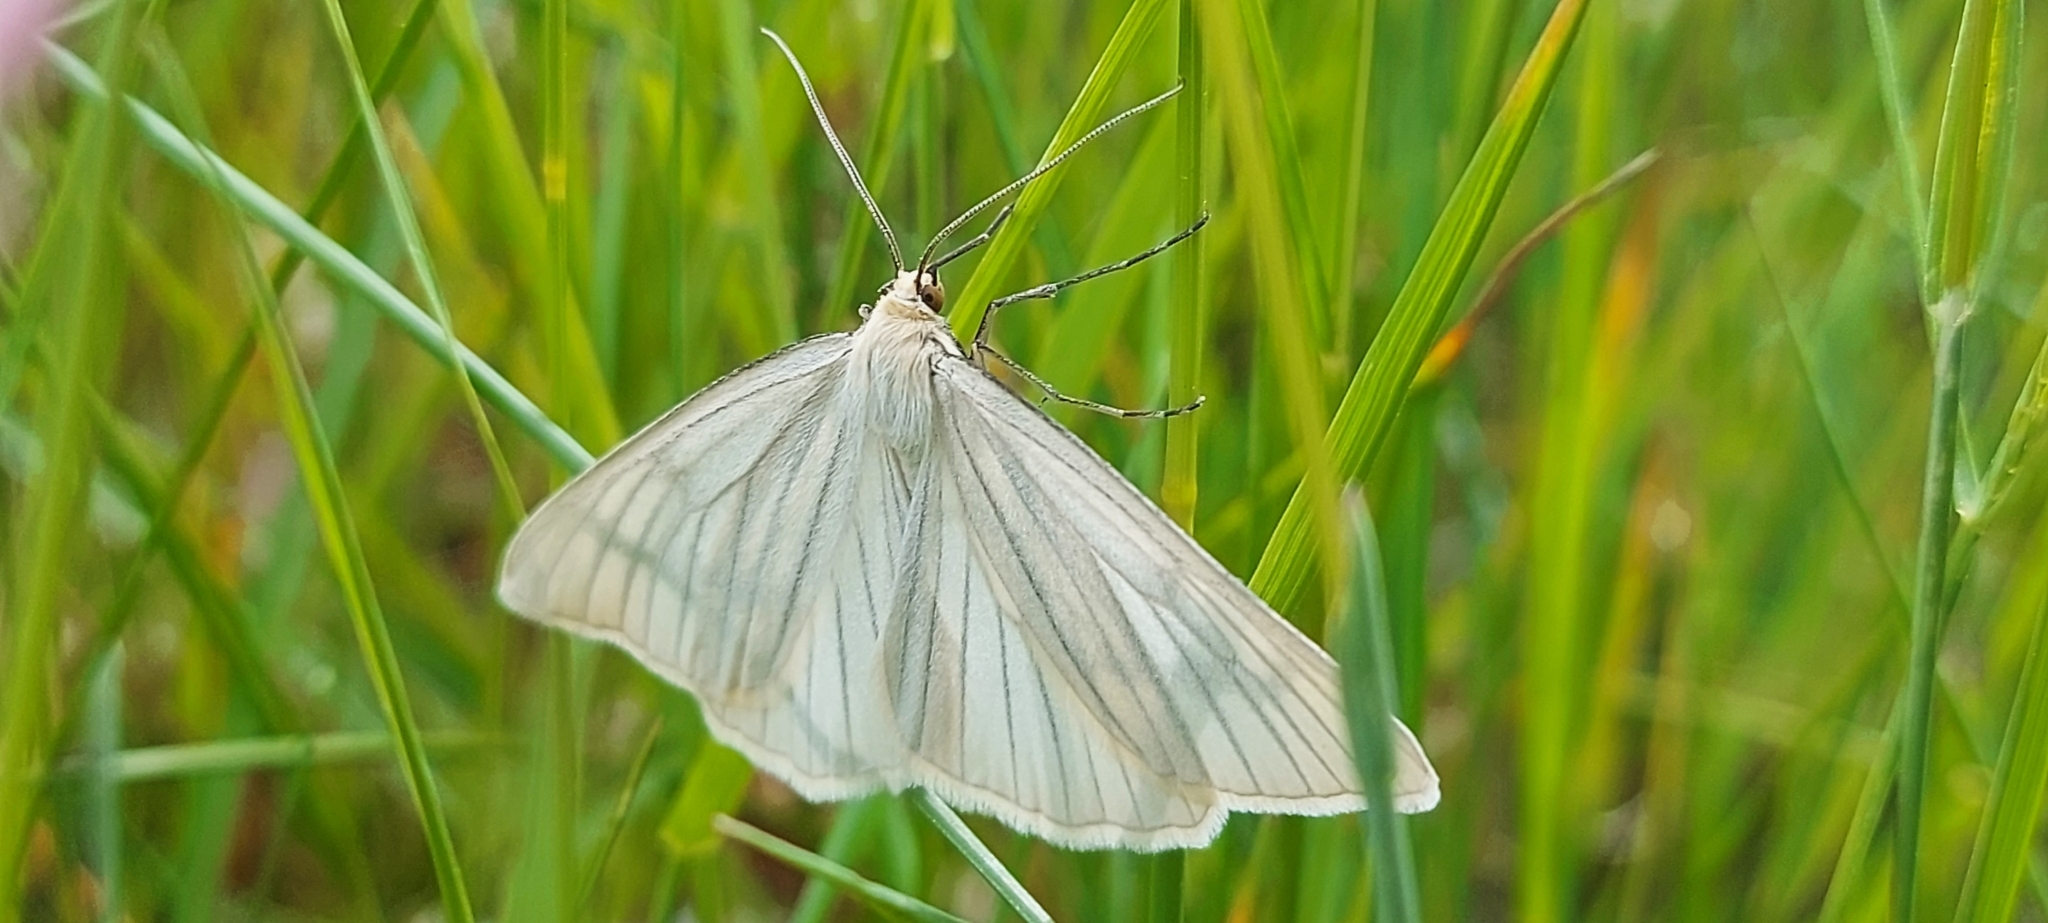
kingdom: Animalia
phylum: Arthropoda
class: Insecta
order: Lepidoptera
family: Geometridae
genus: Siona
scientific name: Siona lineata
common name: Black-veined moth
